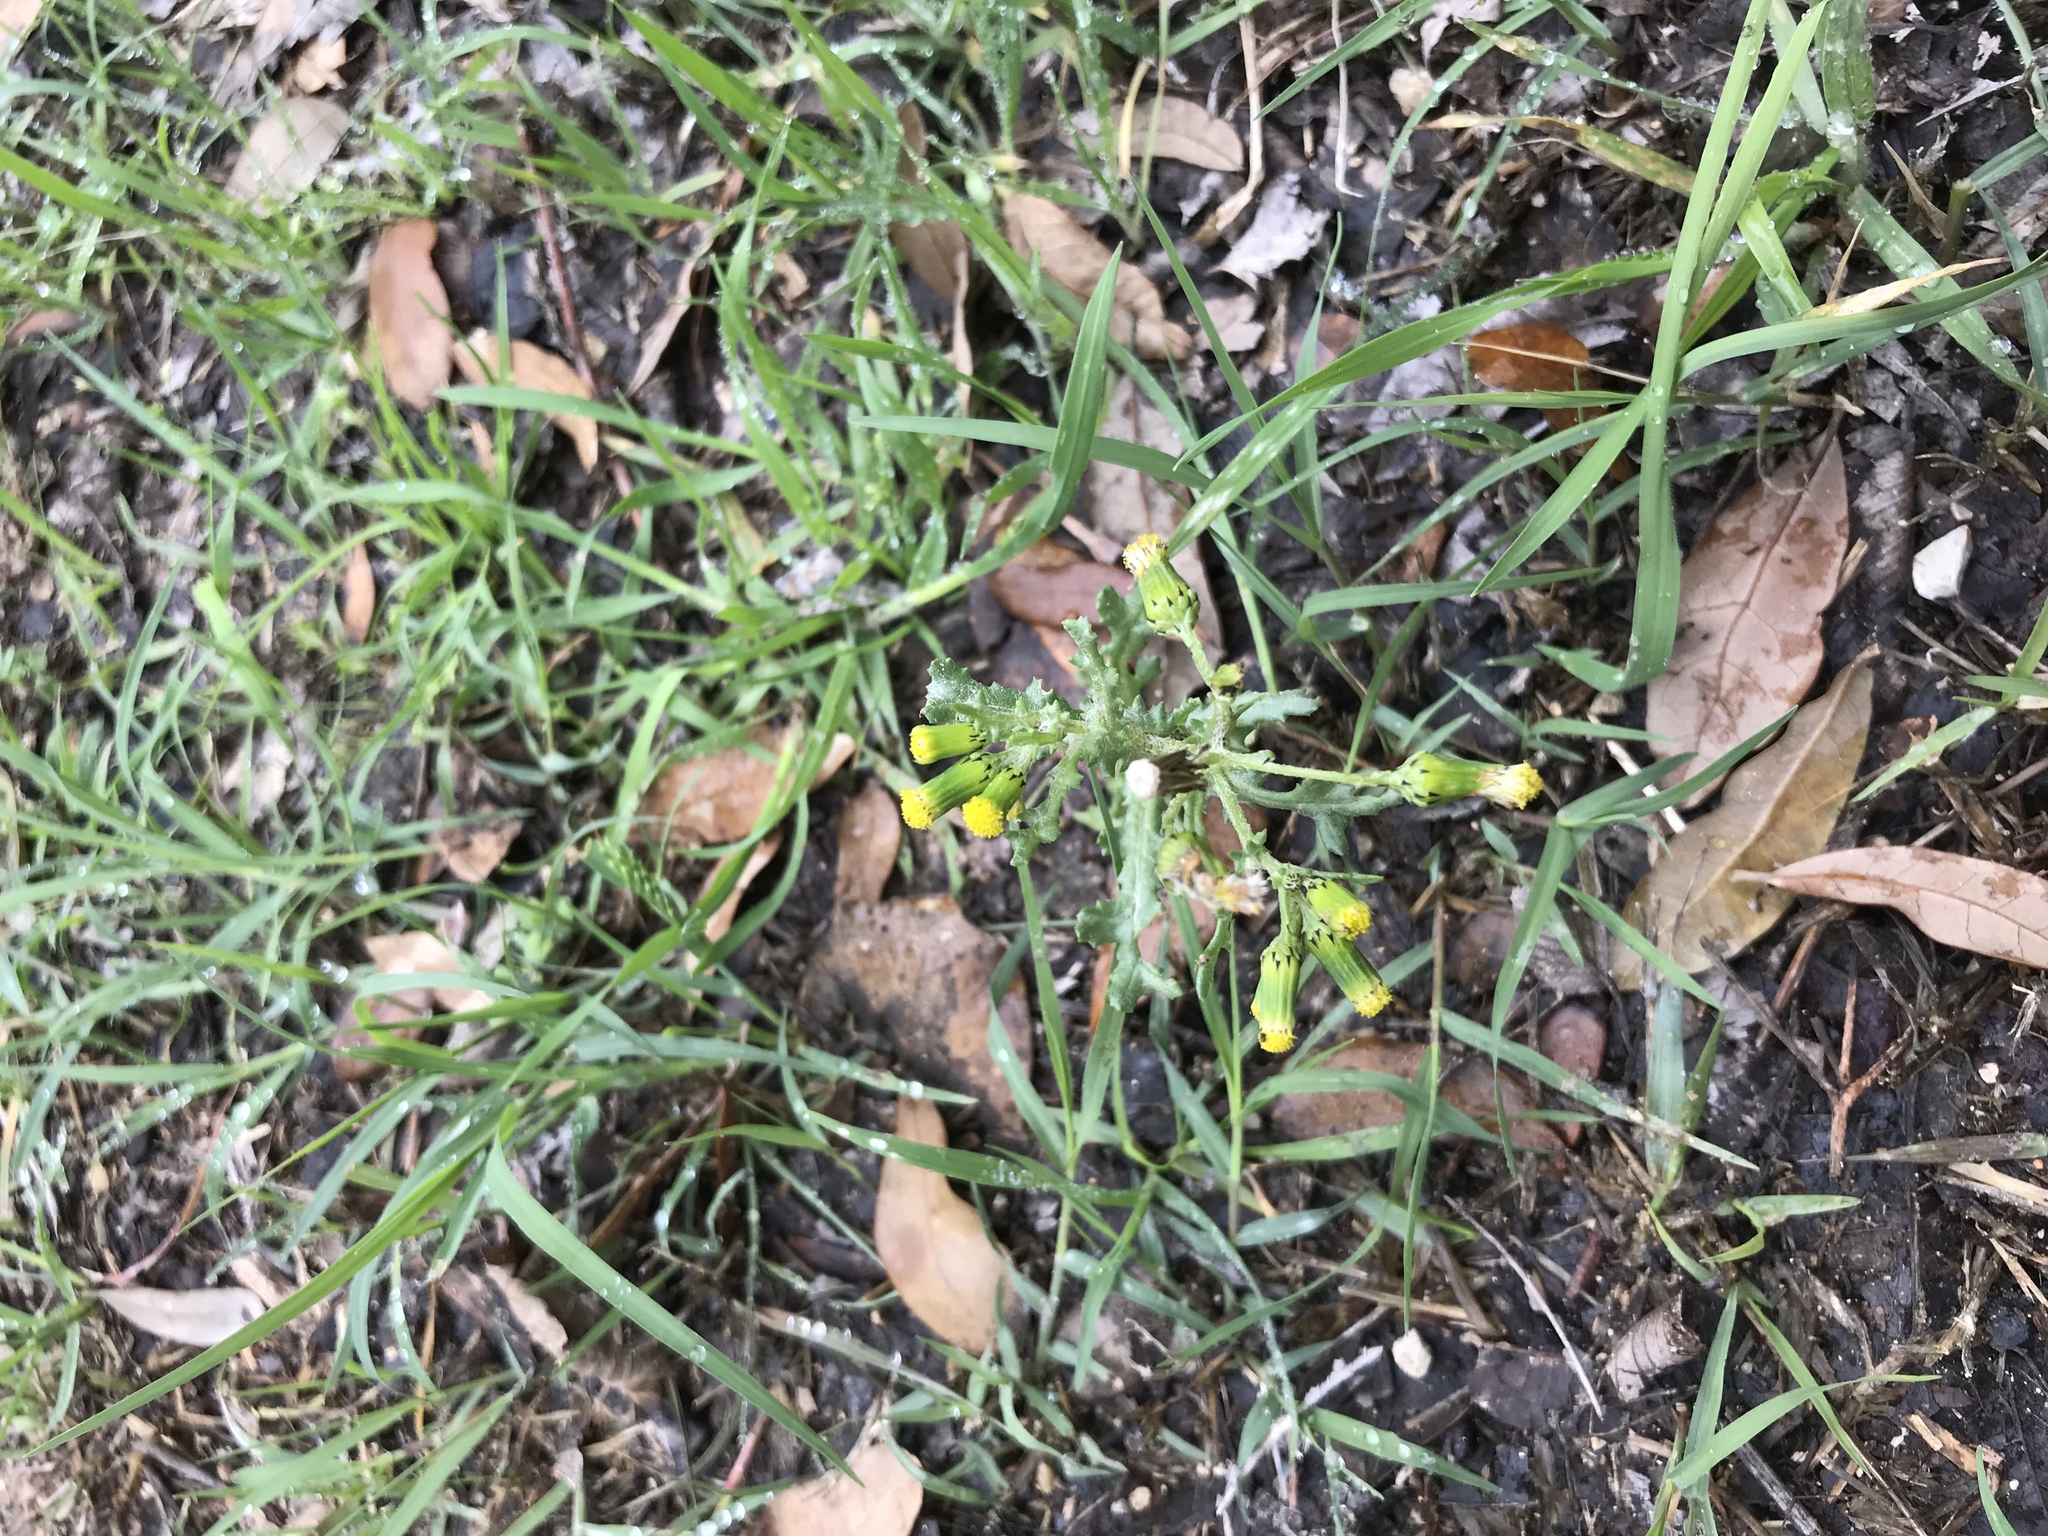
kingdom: Plantae
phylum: Tracheophyta
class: Magnoliopsida
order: Asterales
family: Asteraceae
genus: Senecio
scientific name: Senecio vulgaris
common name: Old-man-in-the-spring
